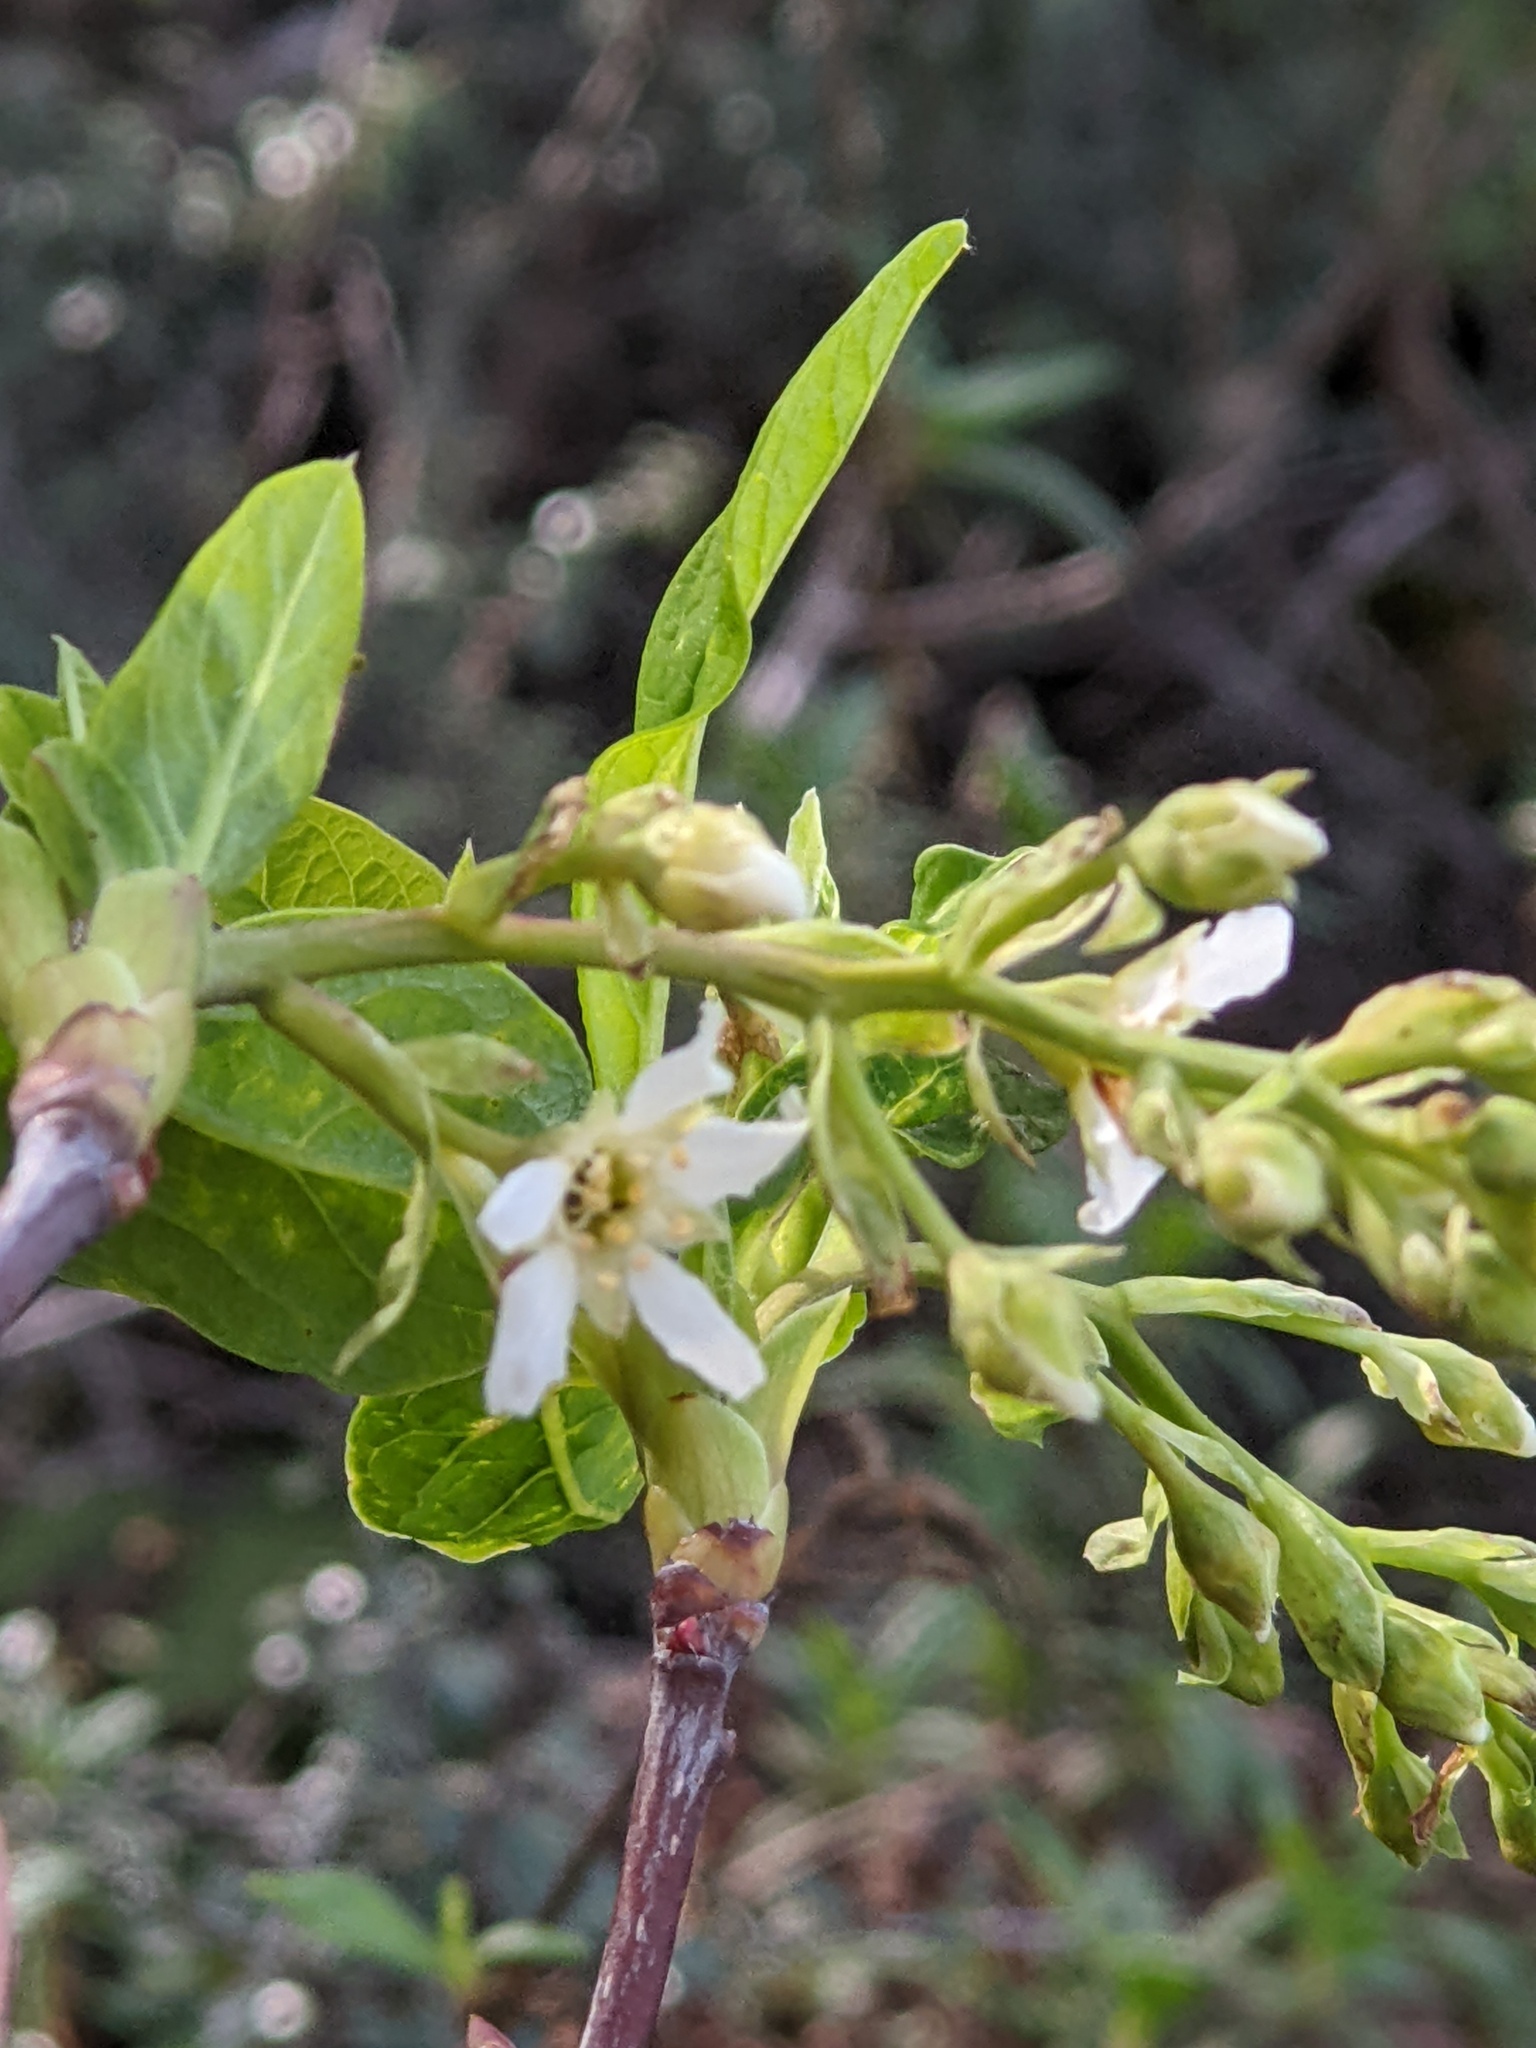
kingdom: Plantae
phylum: Tracheophyta
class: Magnoliopsida
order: Rosales
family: Rosaceae
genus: Oemleria
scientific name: Oemleria cerasiformis
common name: Osoberry
